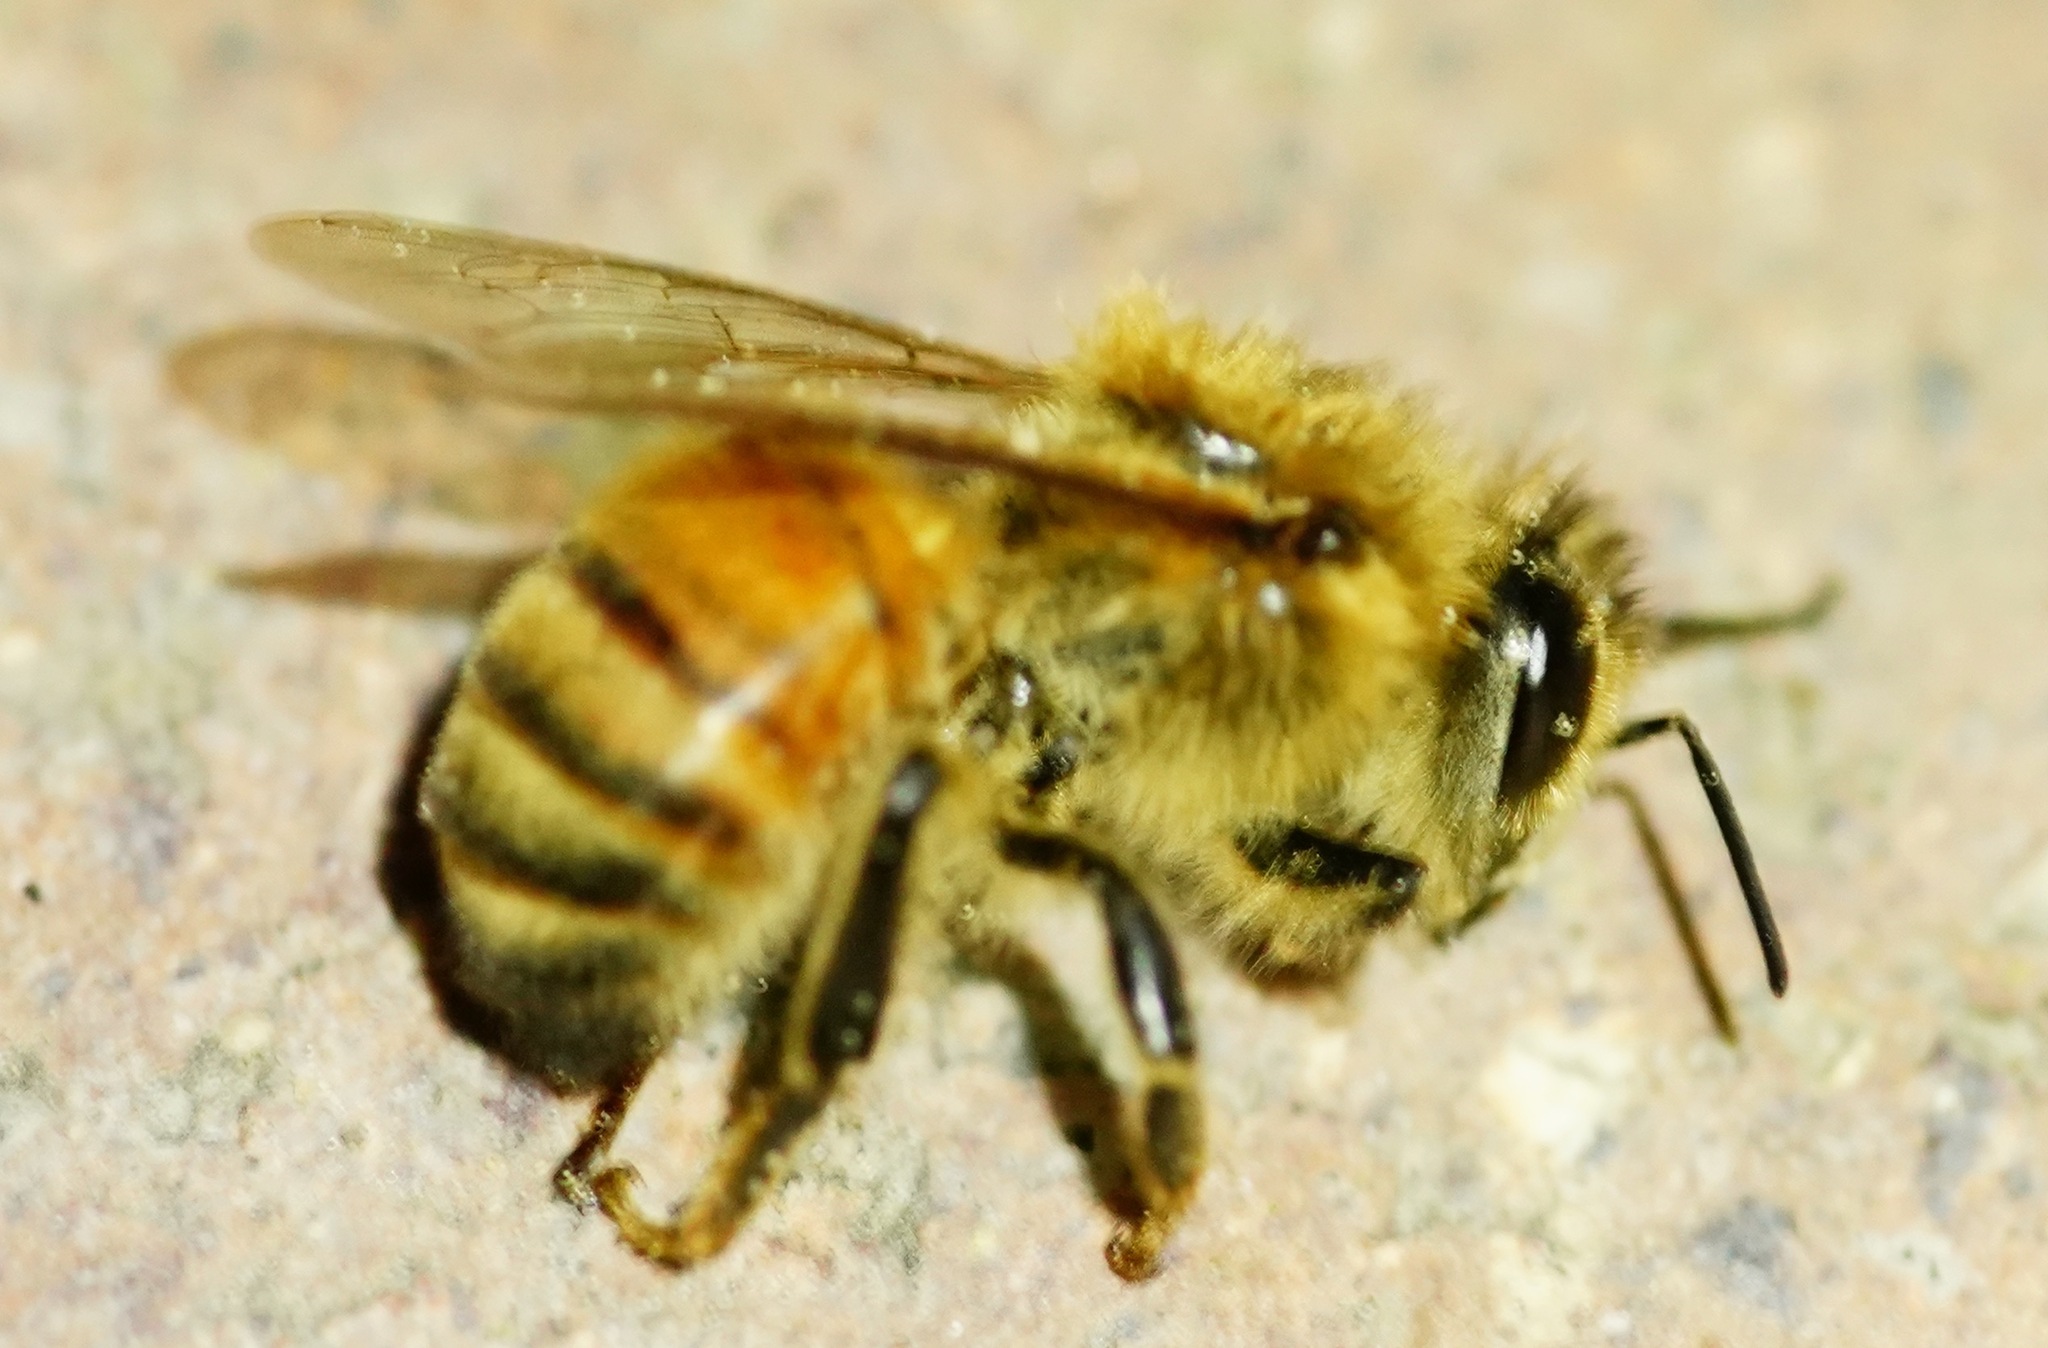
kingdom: Animalia
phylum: Arthropoda
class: Insecta
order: Hymenoptera
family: Apidae
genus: Apis
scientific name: Apis mellifera
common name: Honey bee
